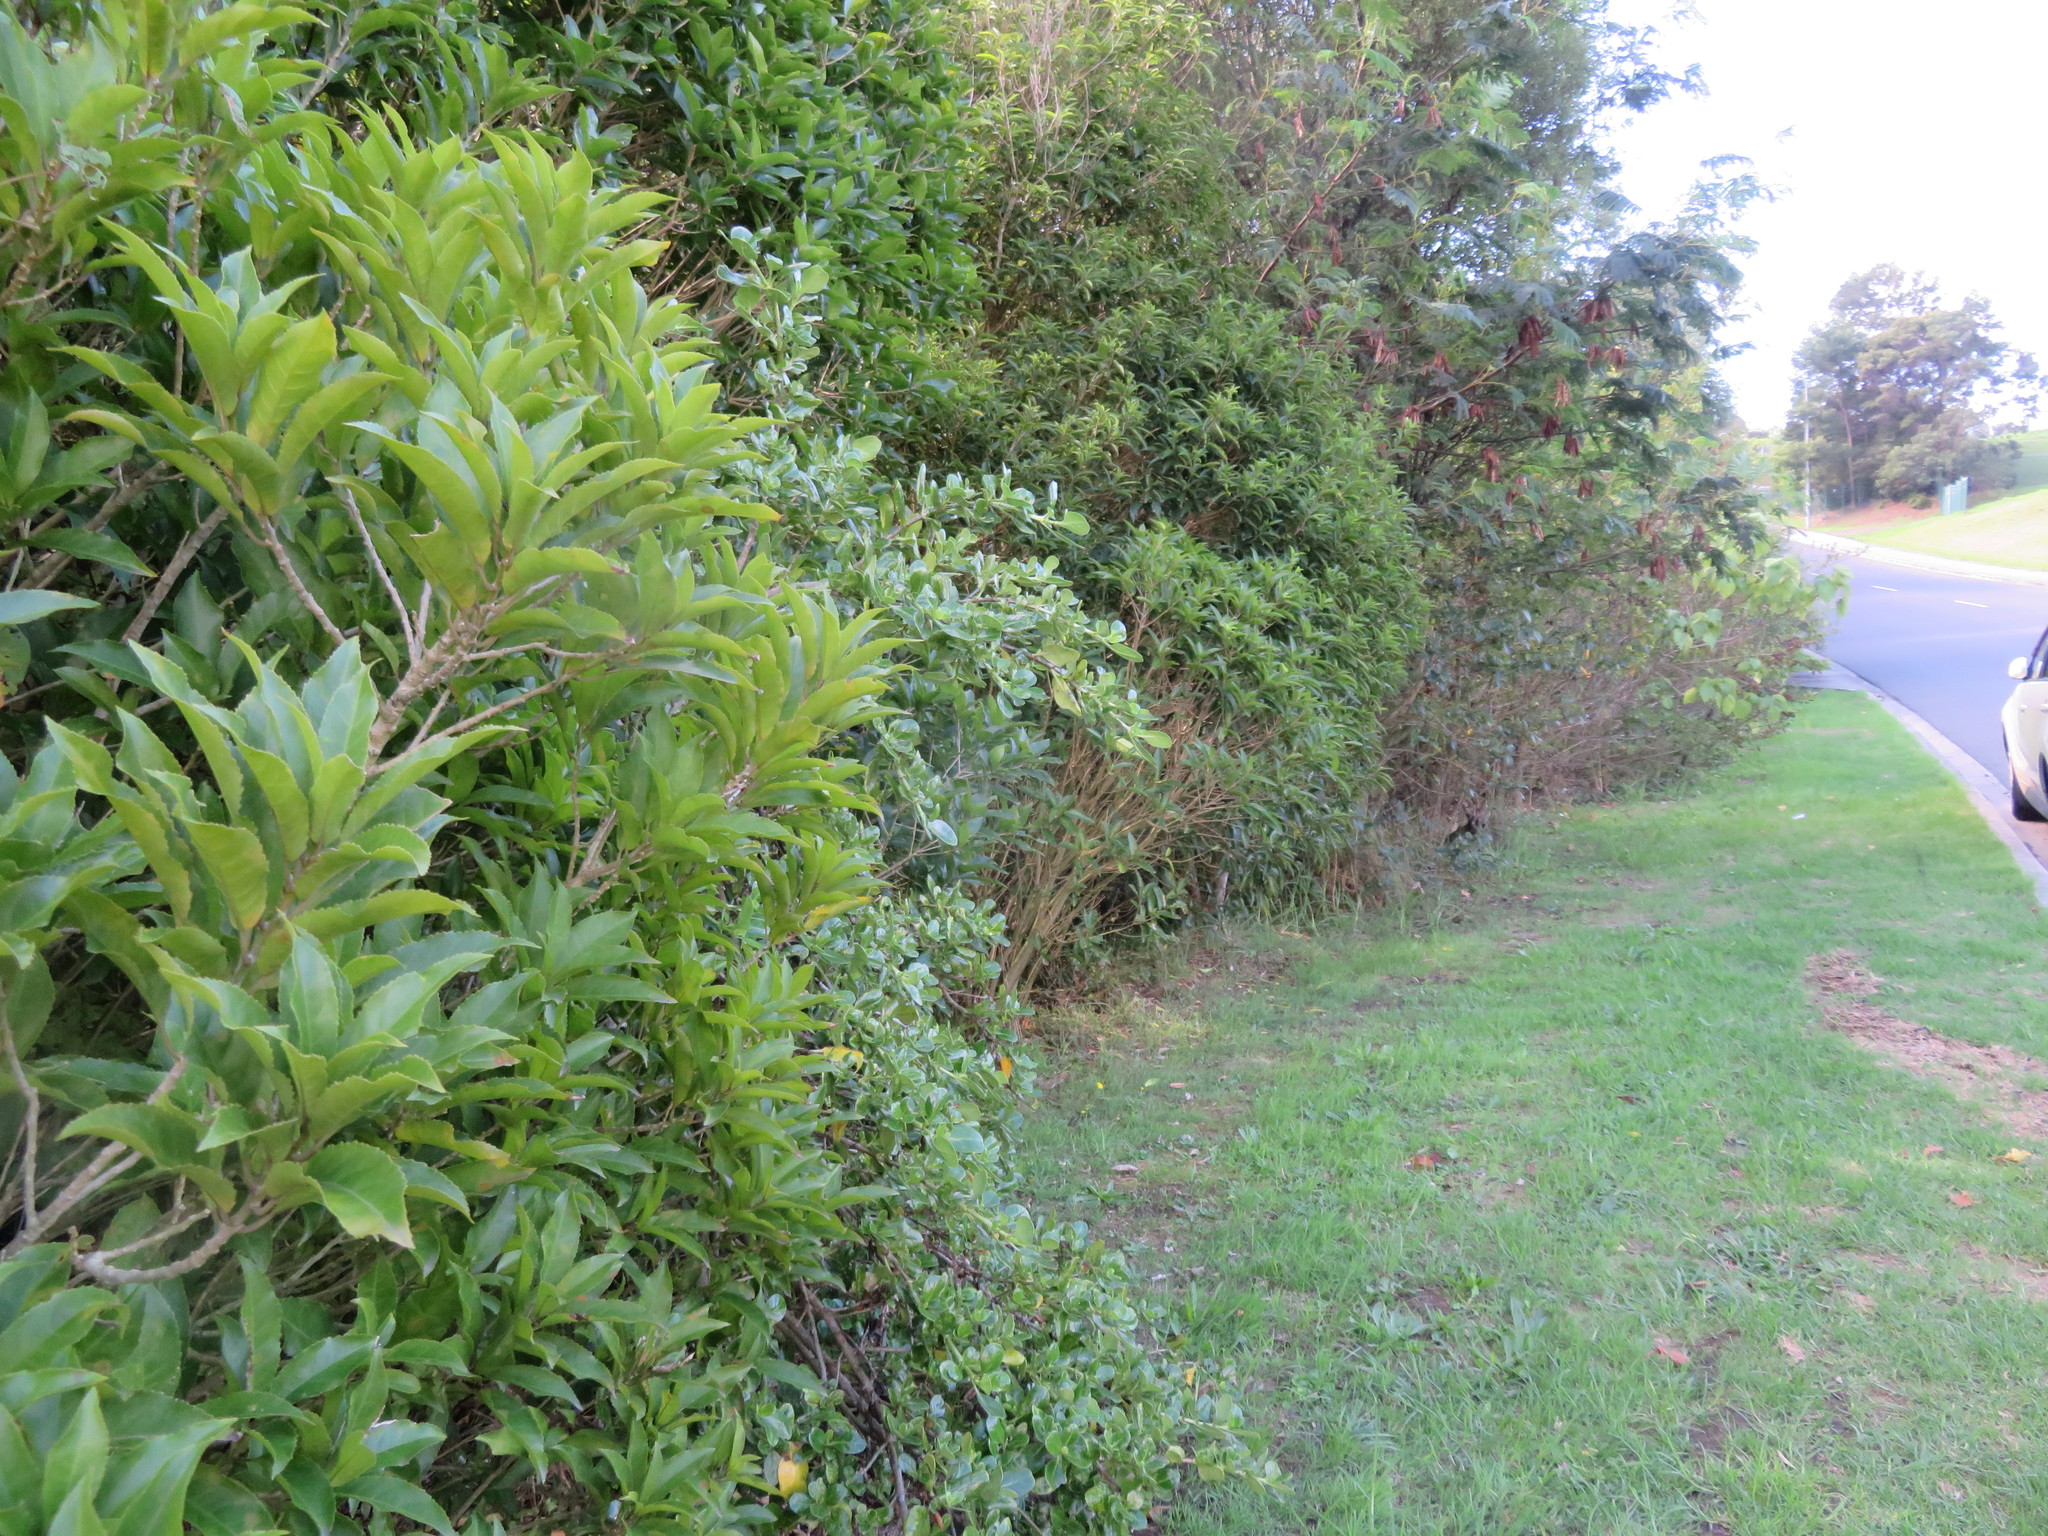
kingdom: Plantae
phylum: Tracheophyta
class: Magnoliopsida
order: Malpighiales
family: Violaceae
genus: Melicytus
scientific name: Melicytus ramiflorus
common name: Mahoe
